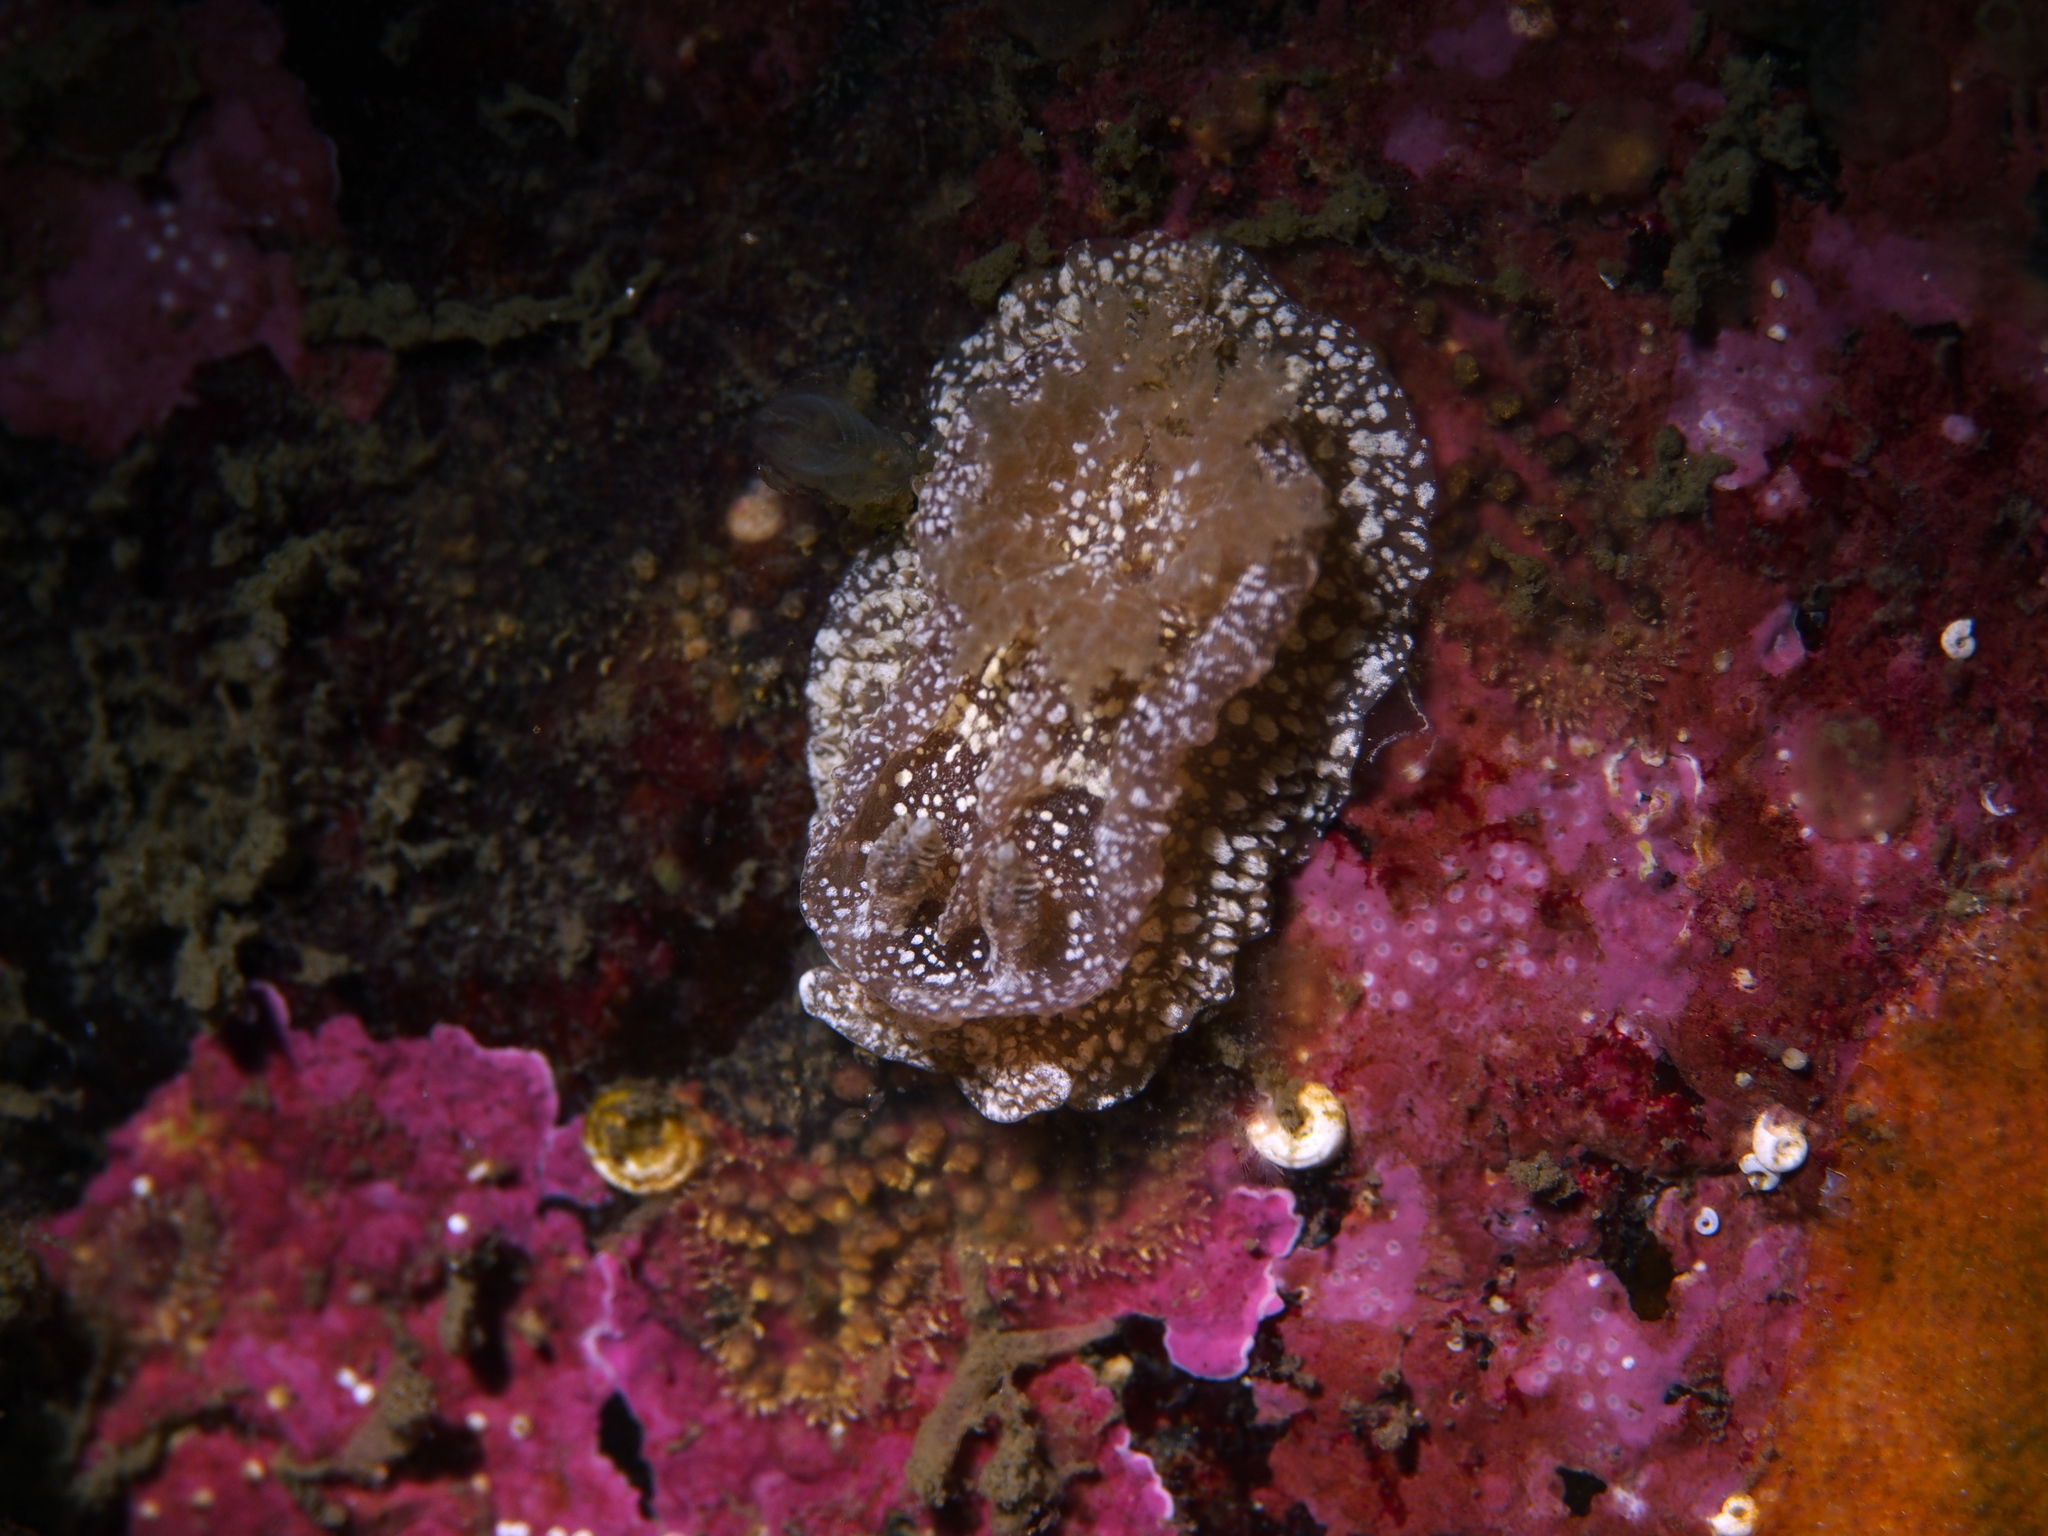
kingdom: Animalia
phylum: Mollusca
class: Gastropoda
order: Nudibranchia
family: Goniodorididae
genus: Pelagella
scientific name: Pelagella castanea
